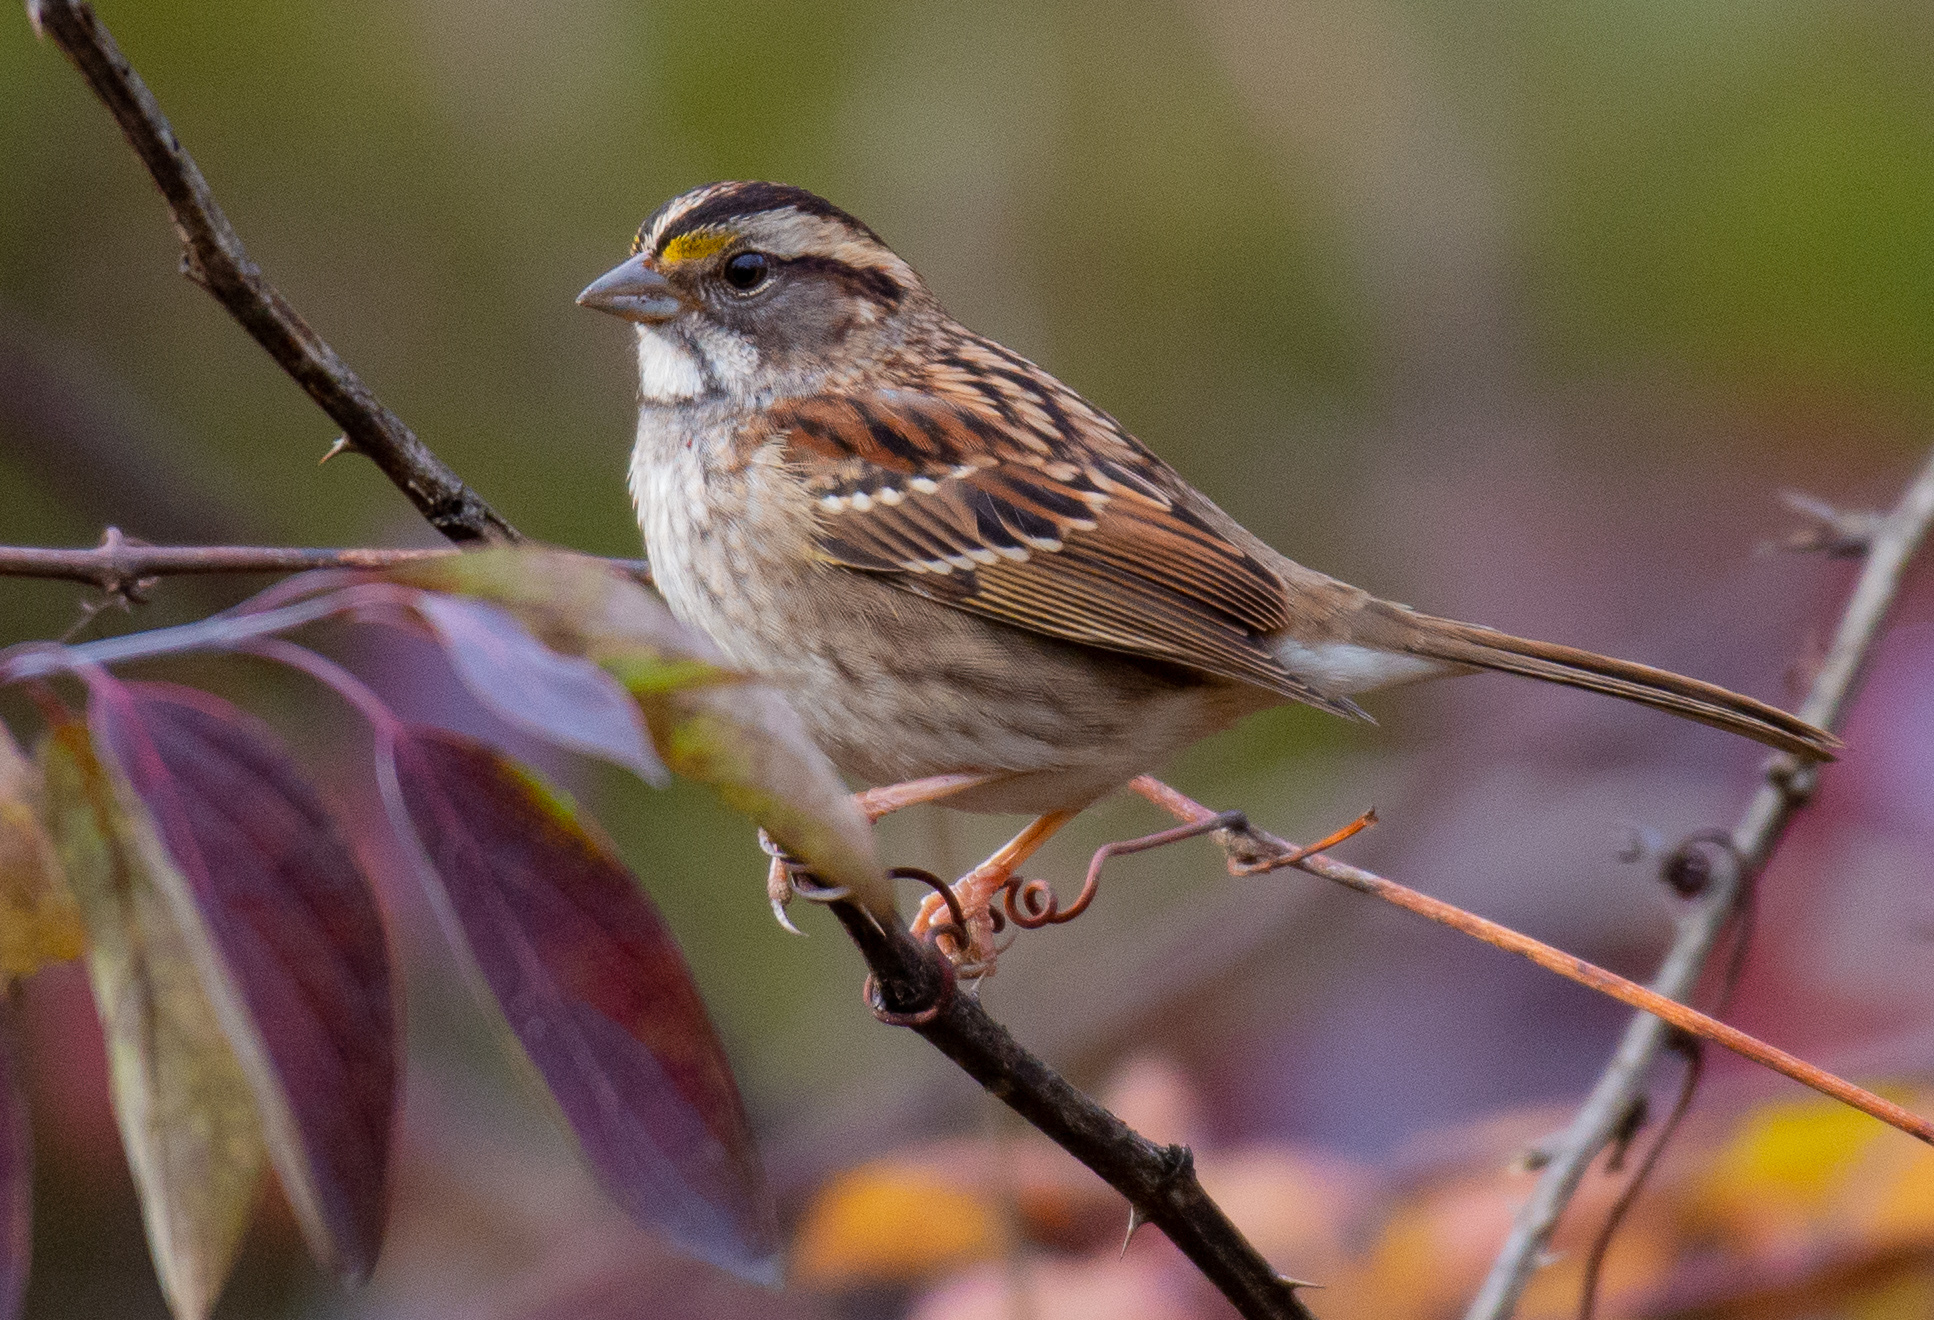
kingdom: Animalia
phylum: Chordata
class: Aves
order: Passeriformes
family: Passerellidae
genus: Zonotrichia
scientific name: Zonotrichia albicollis
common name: White-throated sparrow
